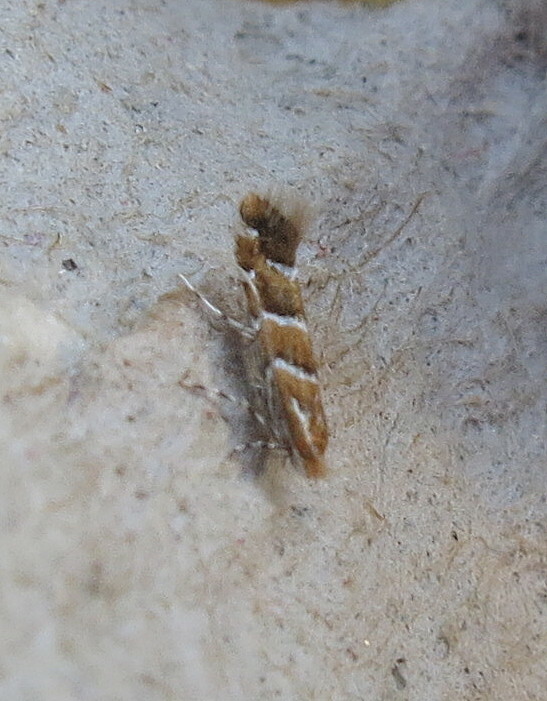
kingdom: Animalia
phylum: Arthropoda
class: Insecta
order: Lepidoptera
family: Gracillariidae
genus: Cameraria
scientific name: Cameraria ohridella
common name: Horse-chestnut leaf-miner
